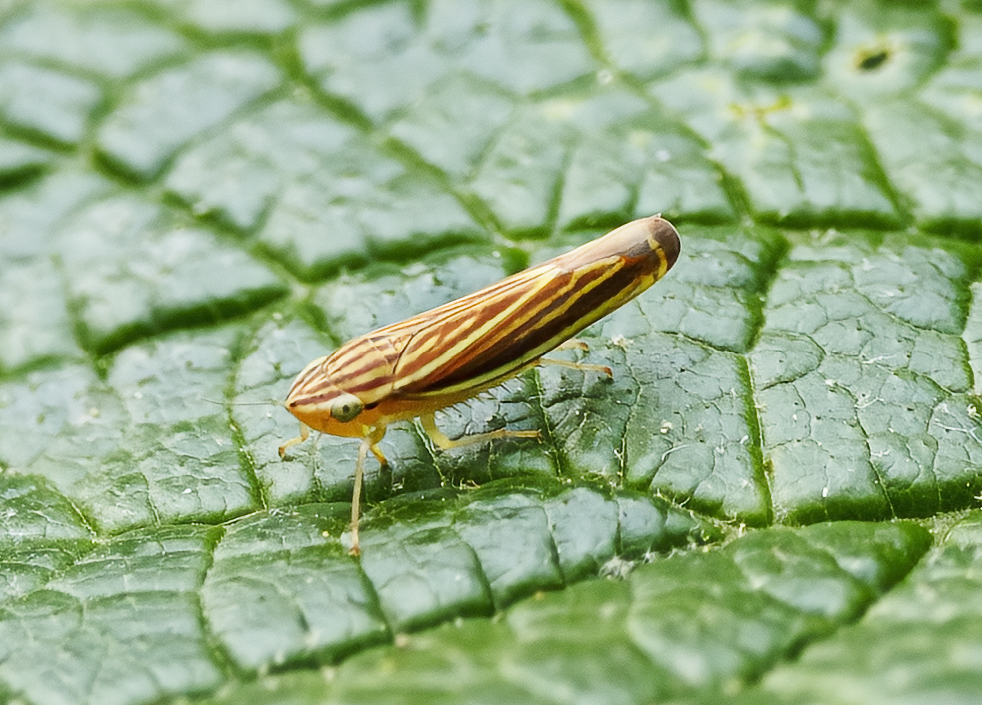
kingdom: Animalia
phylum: Arthropoda
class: Insecta
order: Hemiptera
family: Cicadellidae
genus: Sibovia
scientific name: Sibovia occatoria
